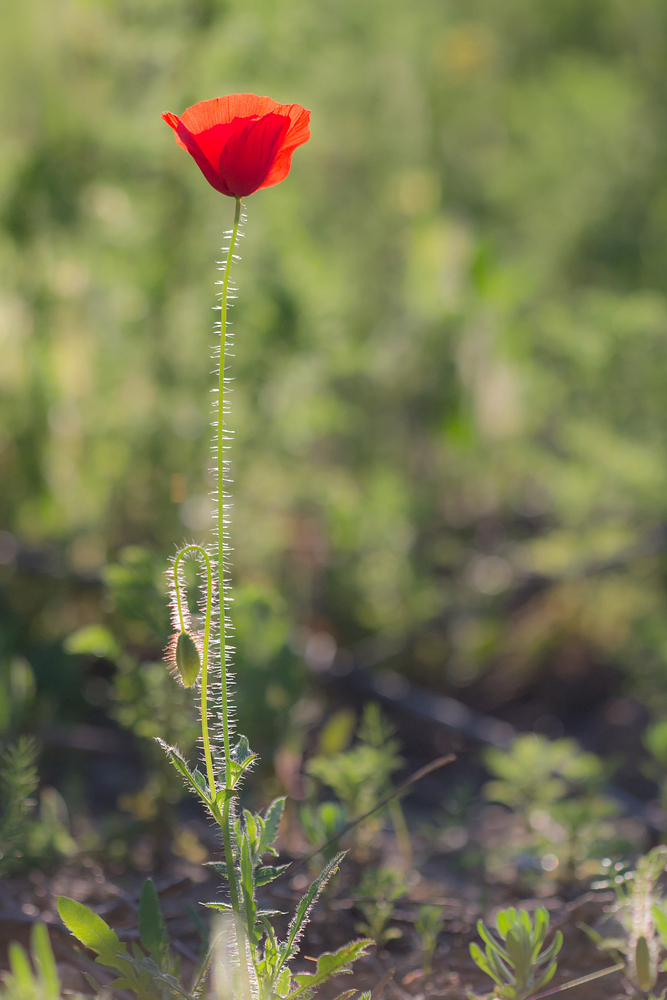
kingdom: Plantae
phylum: Tracheophyta
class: Magnoliopsida
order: Ranunculales
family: Papaveraceae
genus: Papaver
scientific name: Papaver rhoeas
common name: Corn poppy
